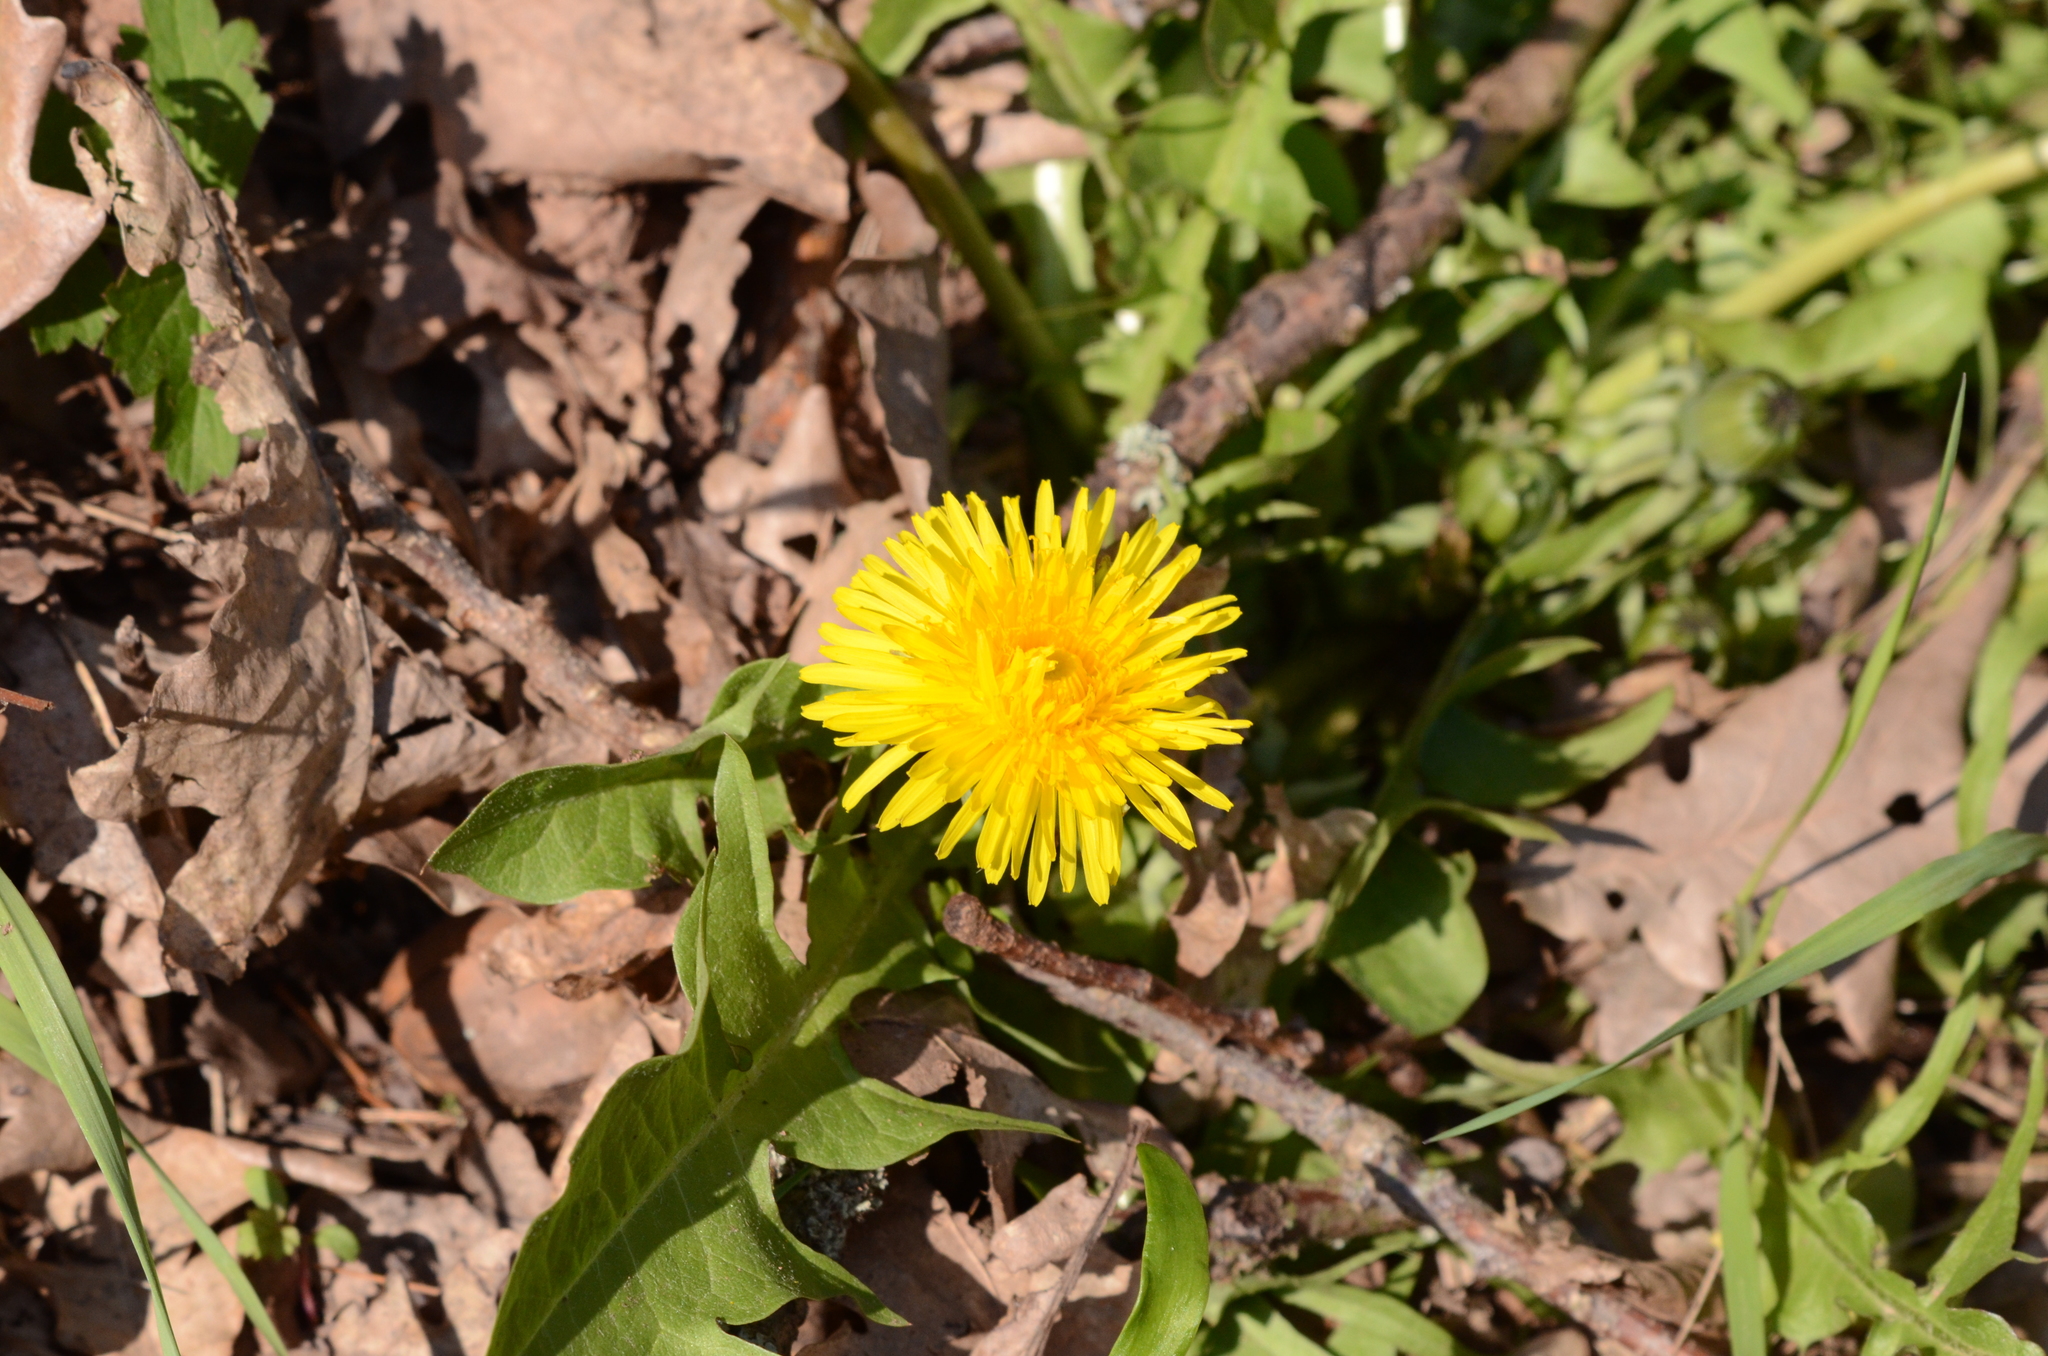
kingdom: Plantae
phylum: Tracheophyta
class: Magnoliopsida
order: Asterales
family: Asteraceae
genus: Taraxacum
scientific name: Taraxacum officinale
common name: Common dandelion
